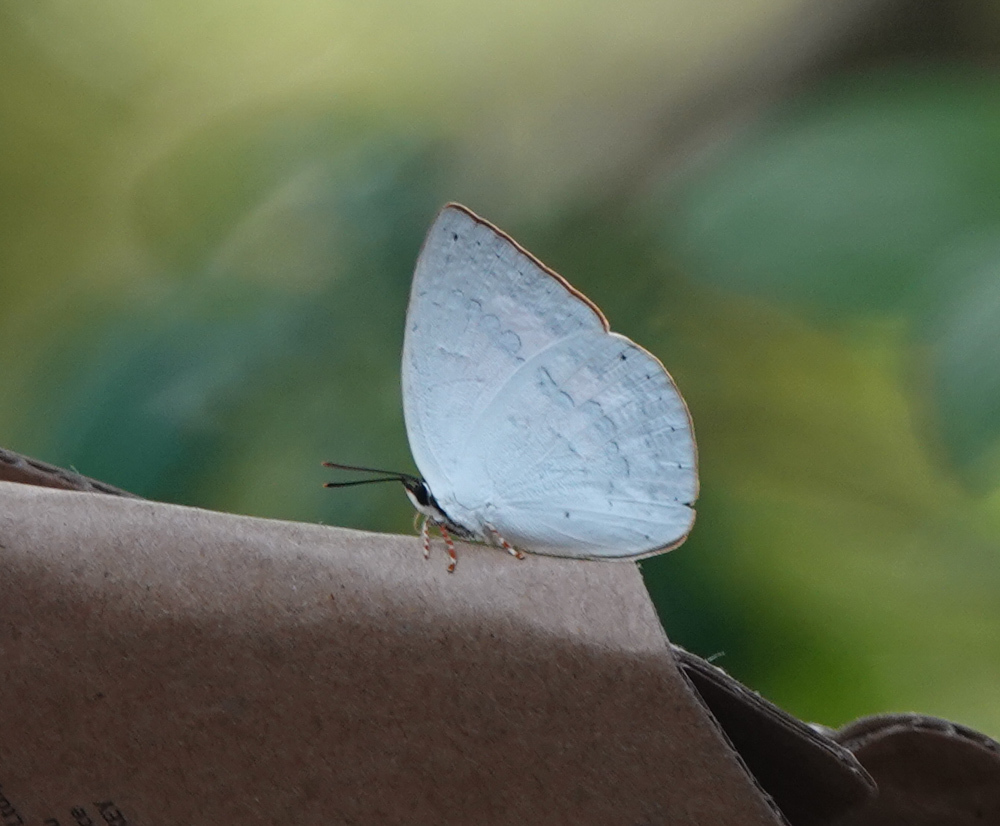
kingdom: Animalia
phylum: Arthropoda
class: Insecta
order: Lepidoptera
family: Lycaenidae
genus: Curetis
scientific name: Curetis saronis
